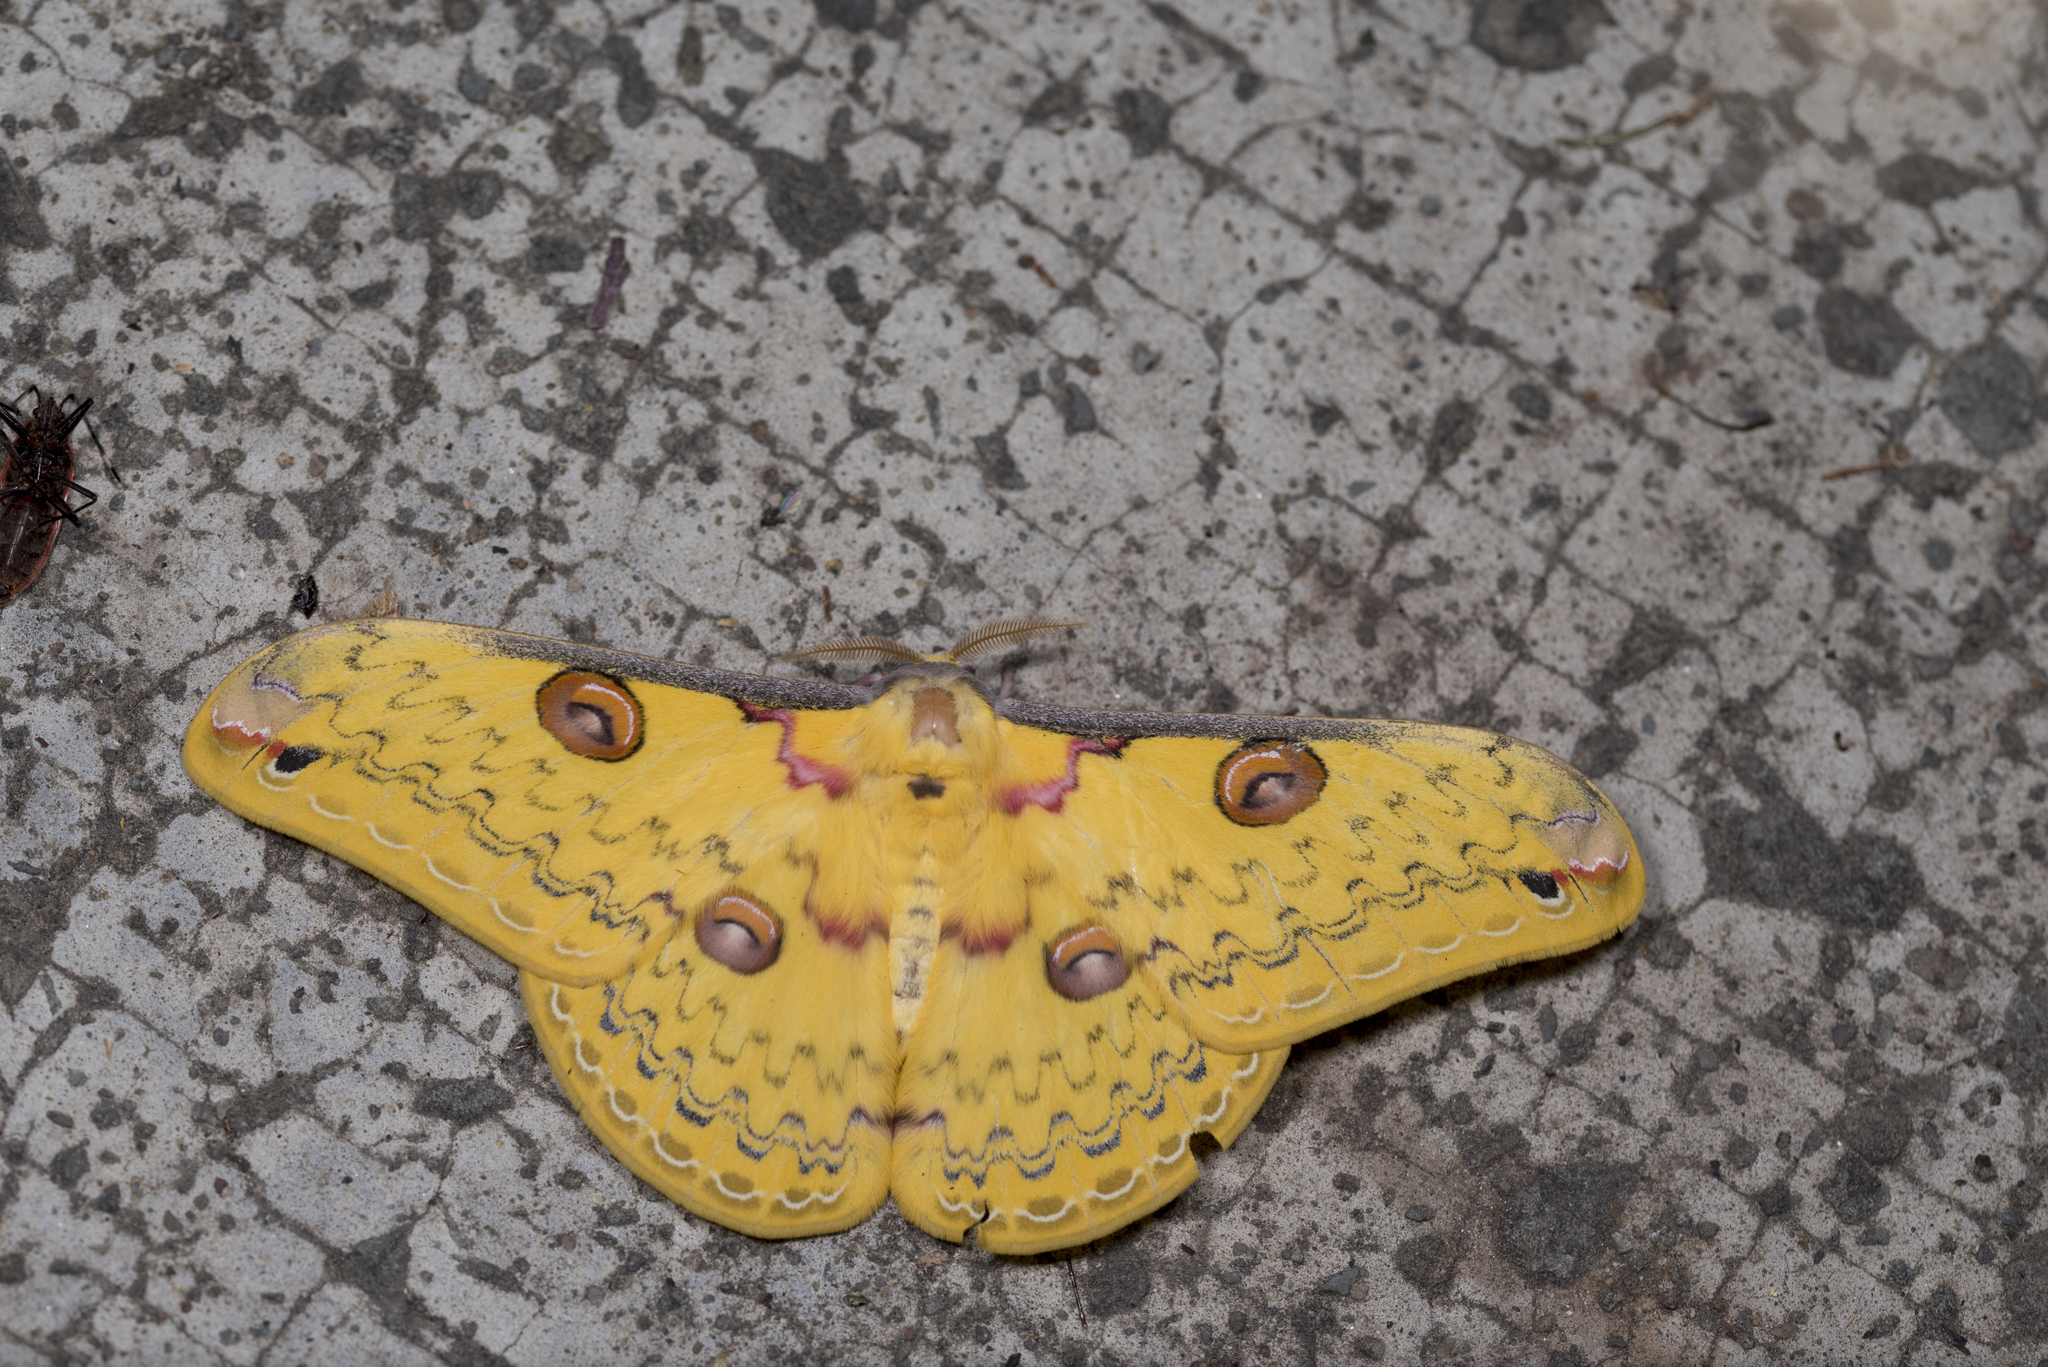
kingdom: Animalia
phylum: Arthropoda
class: Insecta
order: Lepidoptera
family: Saturniidae
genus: Loepa
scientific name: Loepa formosensis
